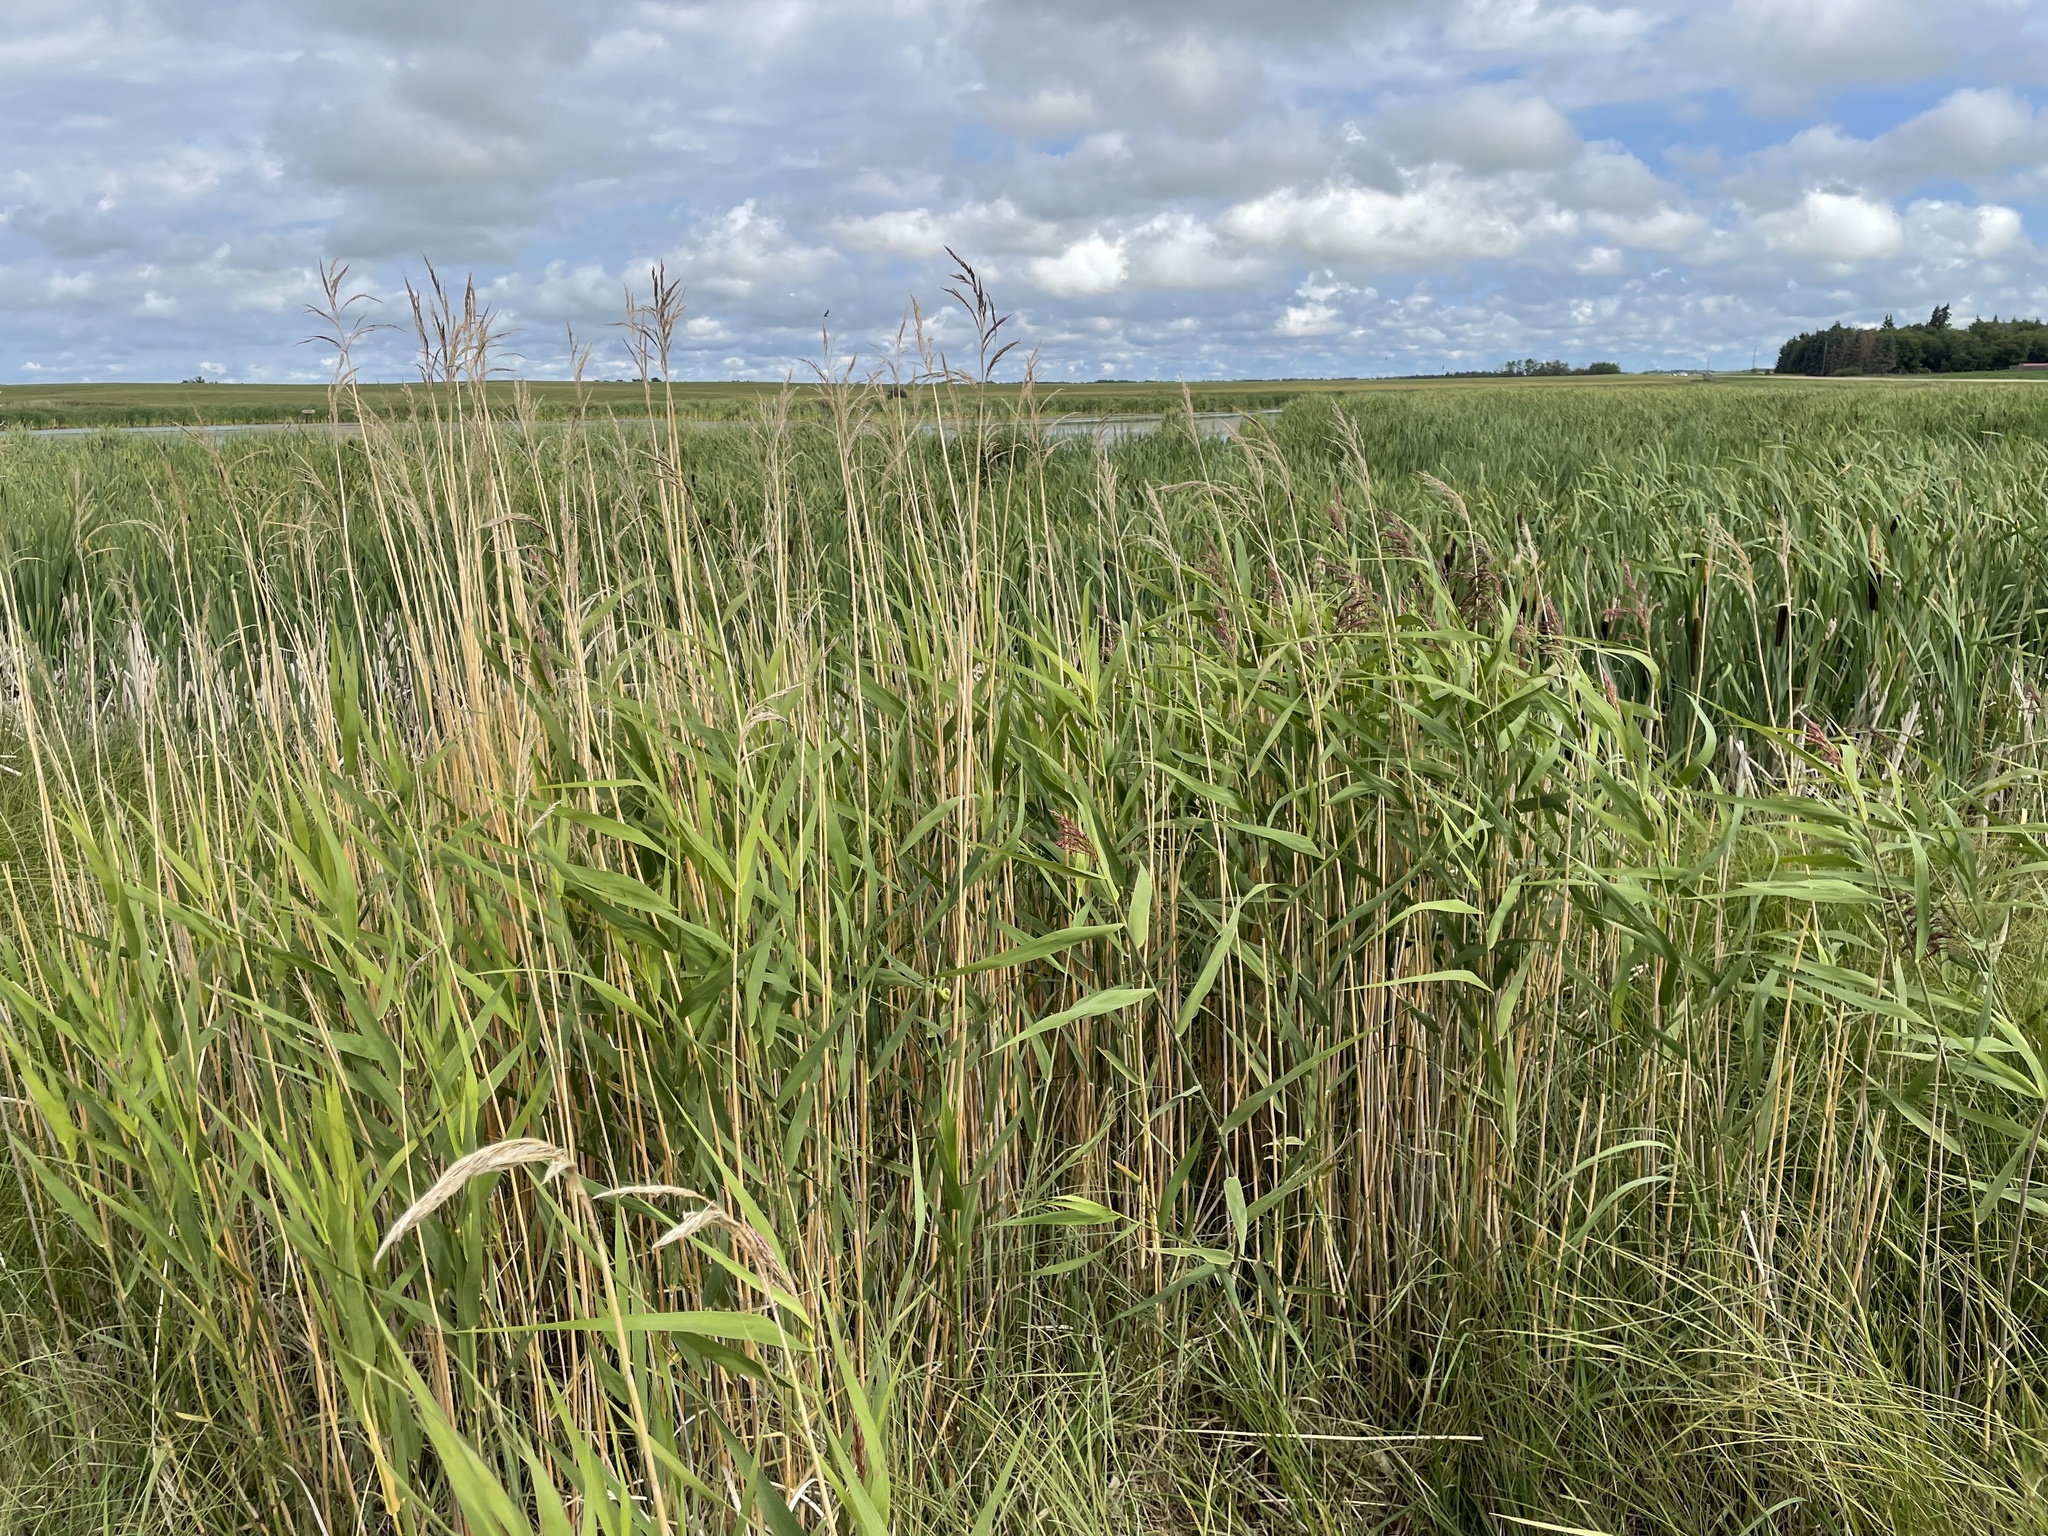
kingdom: Plantae
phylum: Tracheophyta
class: Liliopsida
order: Poales
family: Poaceae
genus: Phragmites
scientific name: Phragmites australis
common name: Common reed
